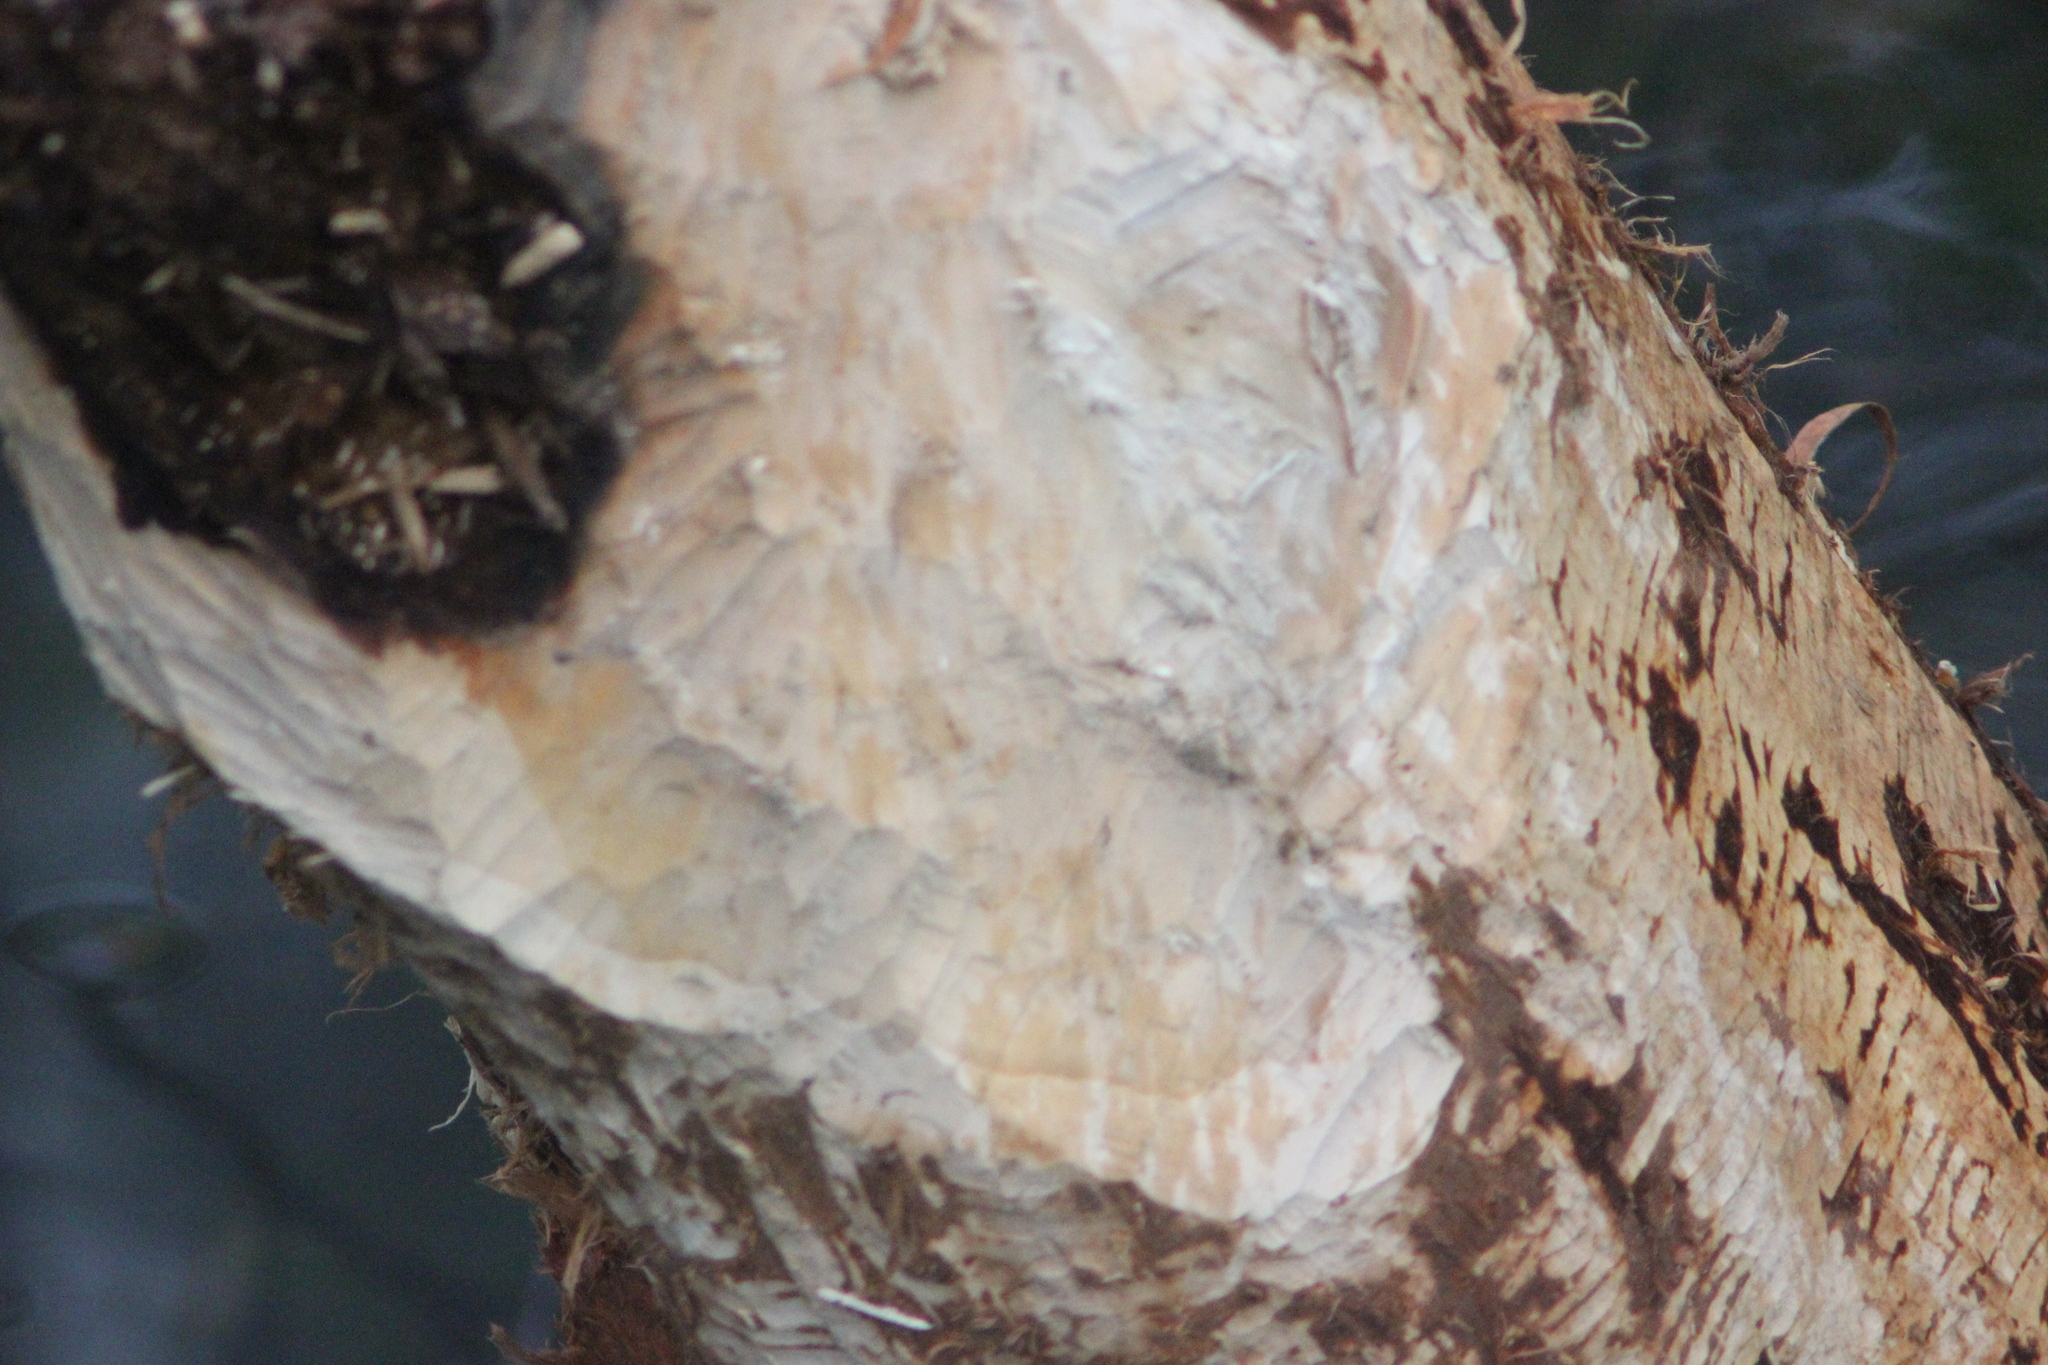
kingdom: Animalia
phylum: Chordata
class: Mammalia
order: Rodentia
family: Castoridae
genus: Castor
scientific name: Castor fiber
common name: Eurasian beaver
